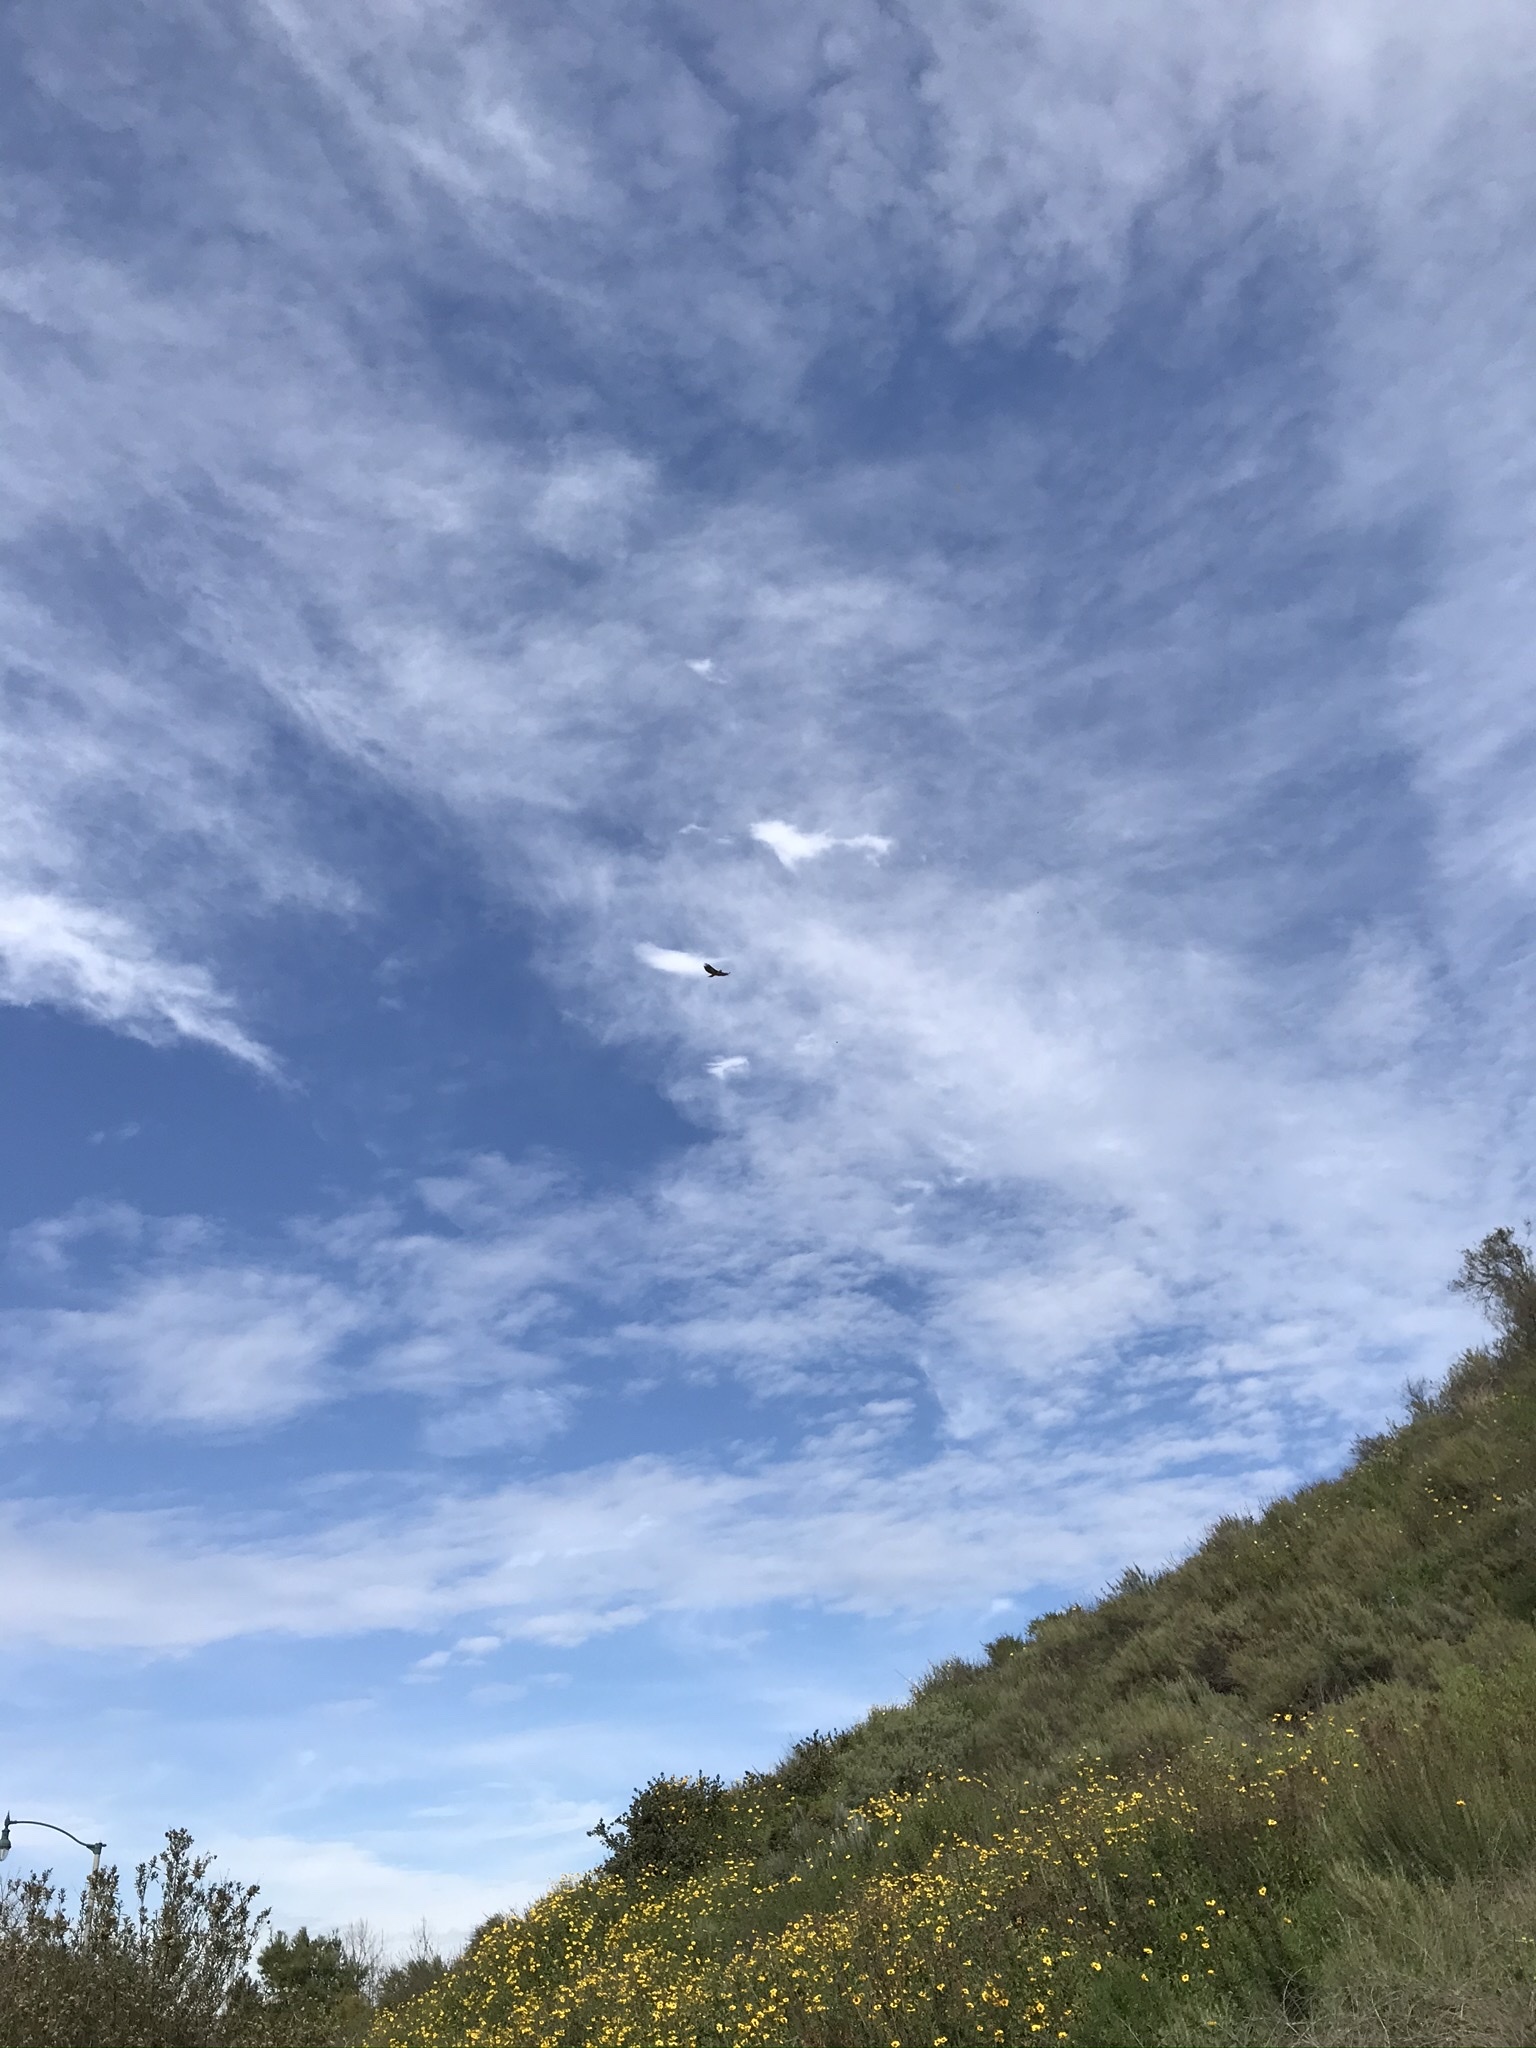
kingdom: Animalia
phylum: Chordata
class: Aves
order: Accipitriformes
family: Accipitridae
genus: Buteo
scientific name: Buteo jamaicensis
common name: Red-tailed hawk
